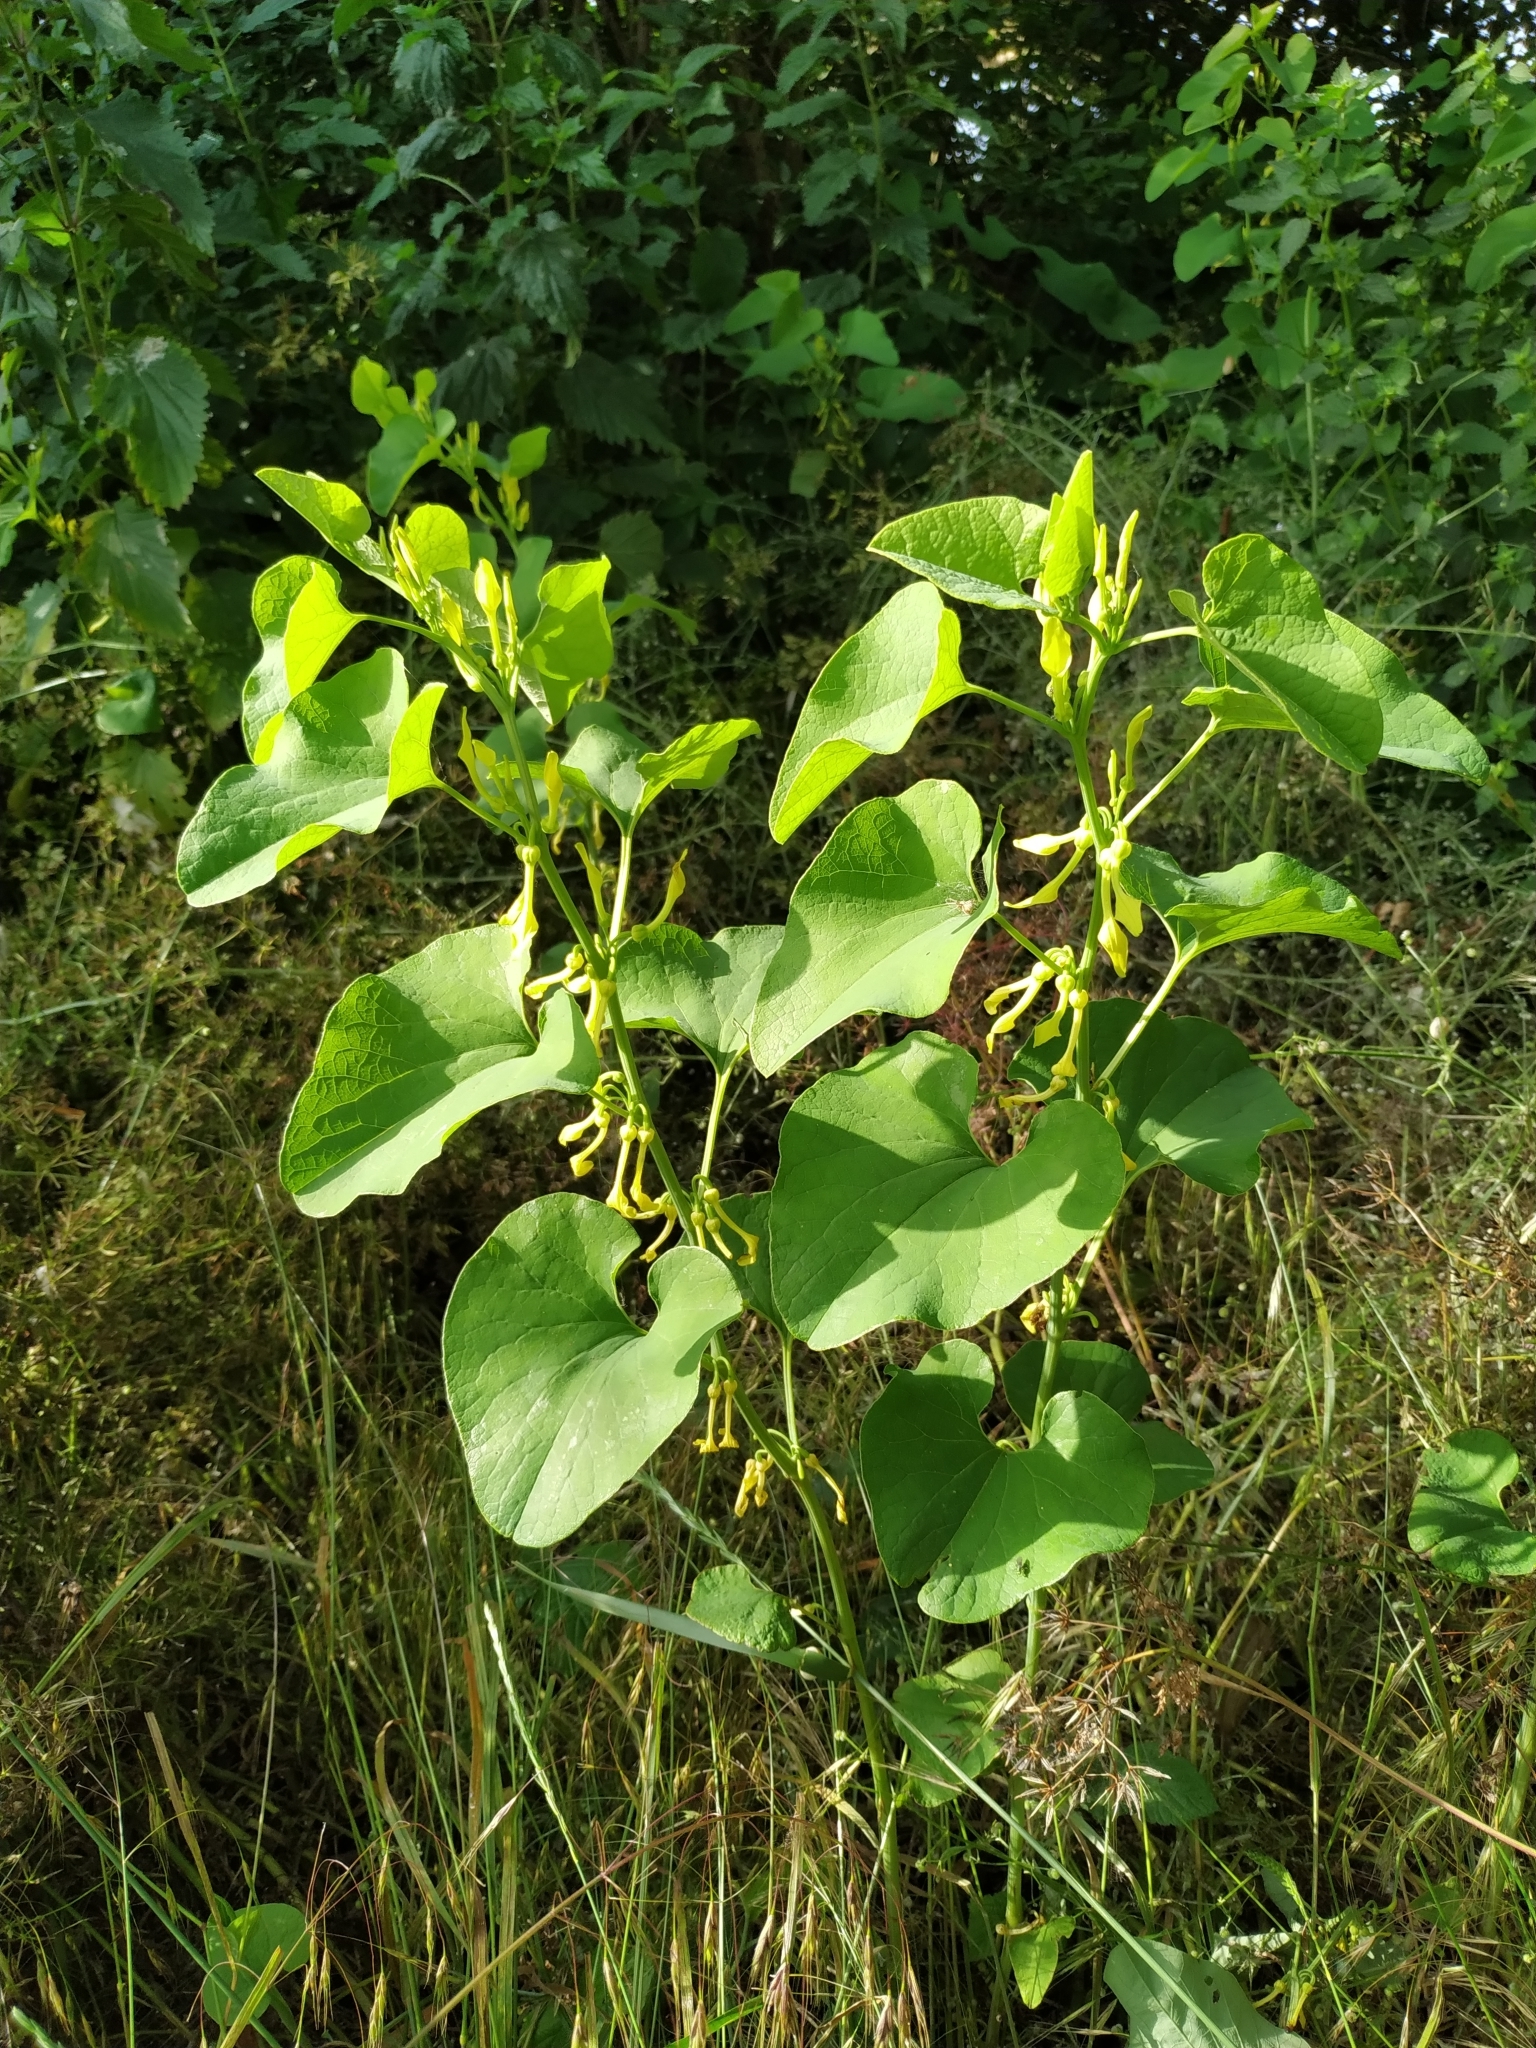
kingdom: Plantae
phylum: Tracheophyta
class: Magnoliopsida
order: Piperales
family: Aristolochiaceae
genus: Aristolochia
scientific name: Aristolochia clematitis
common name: Birthwort
